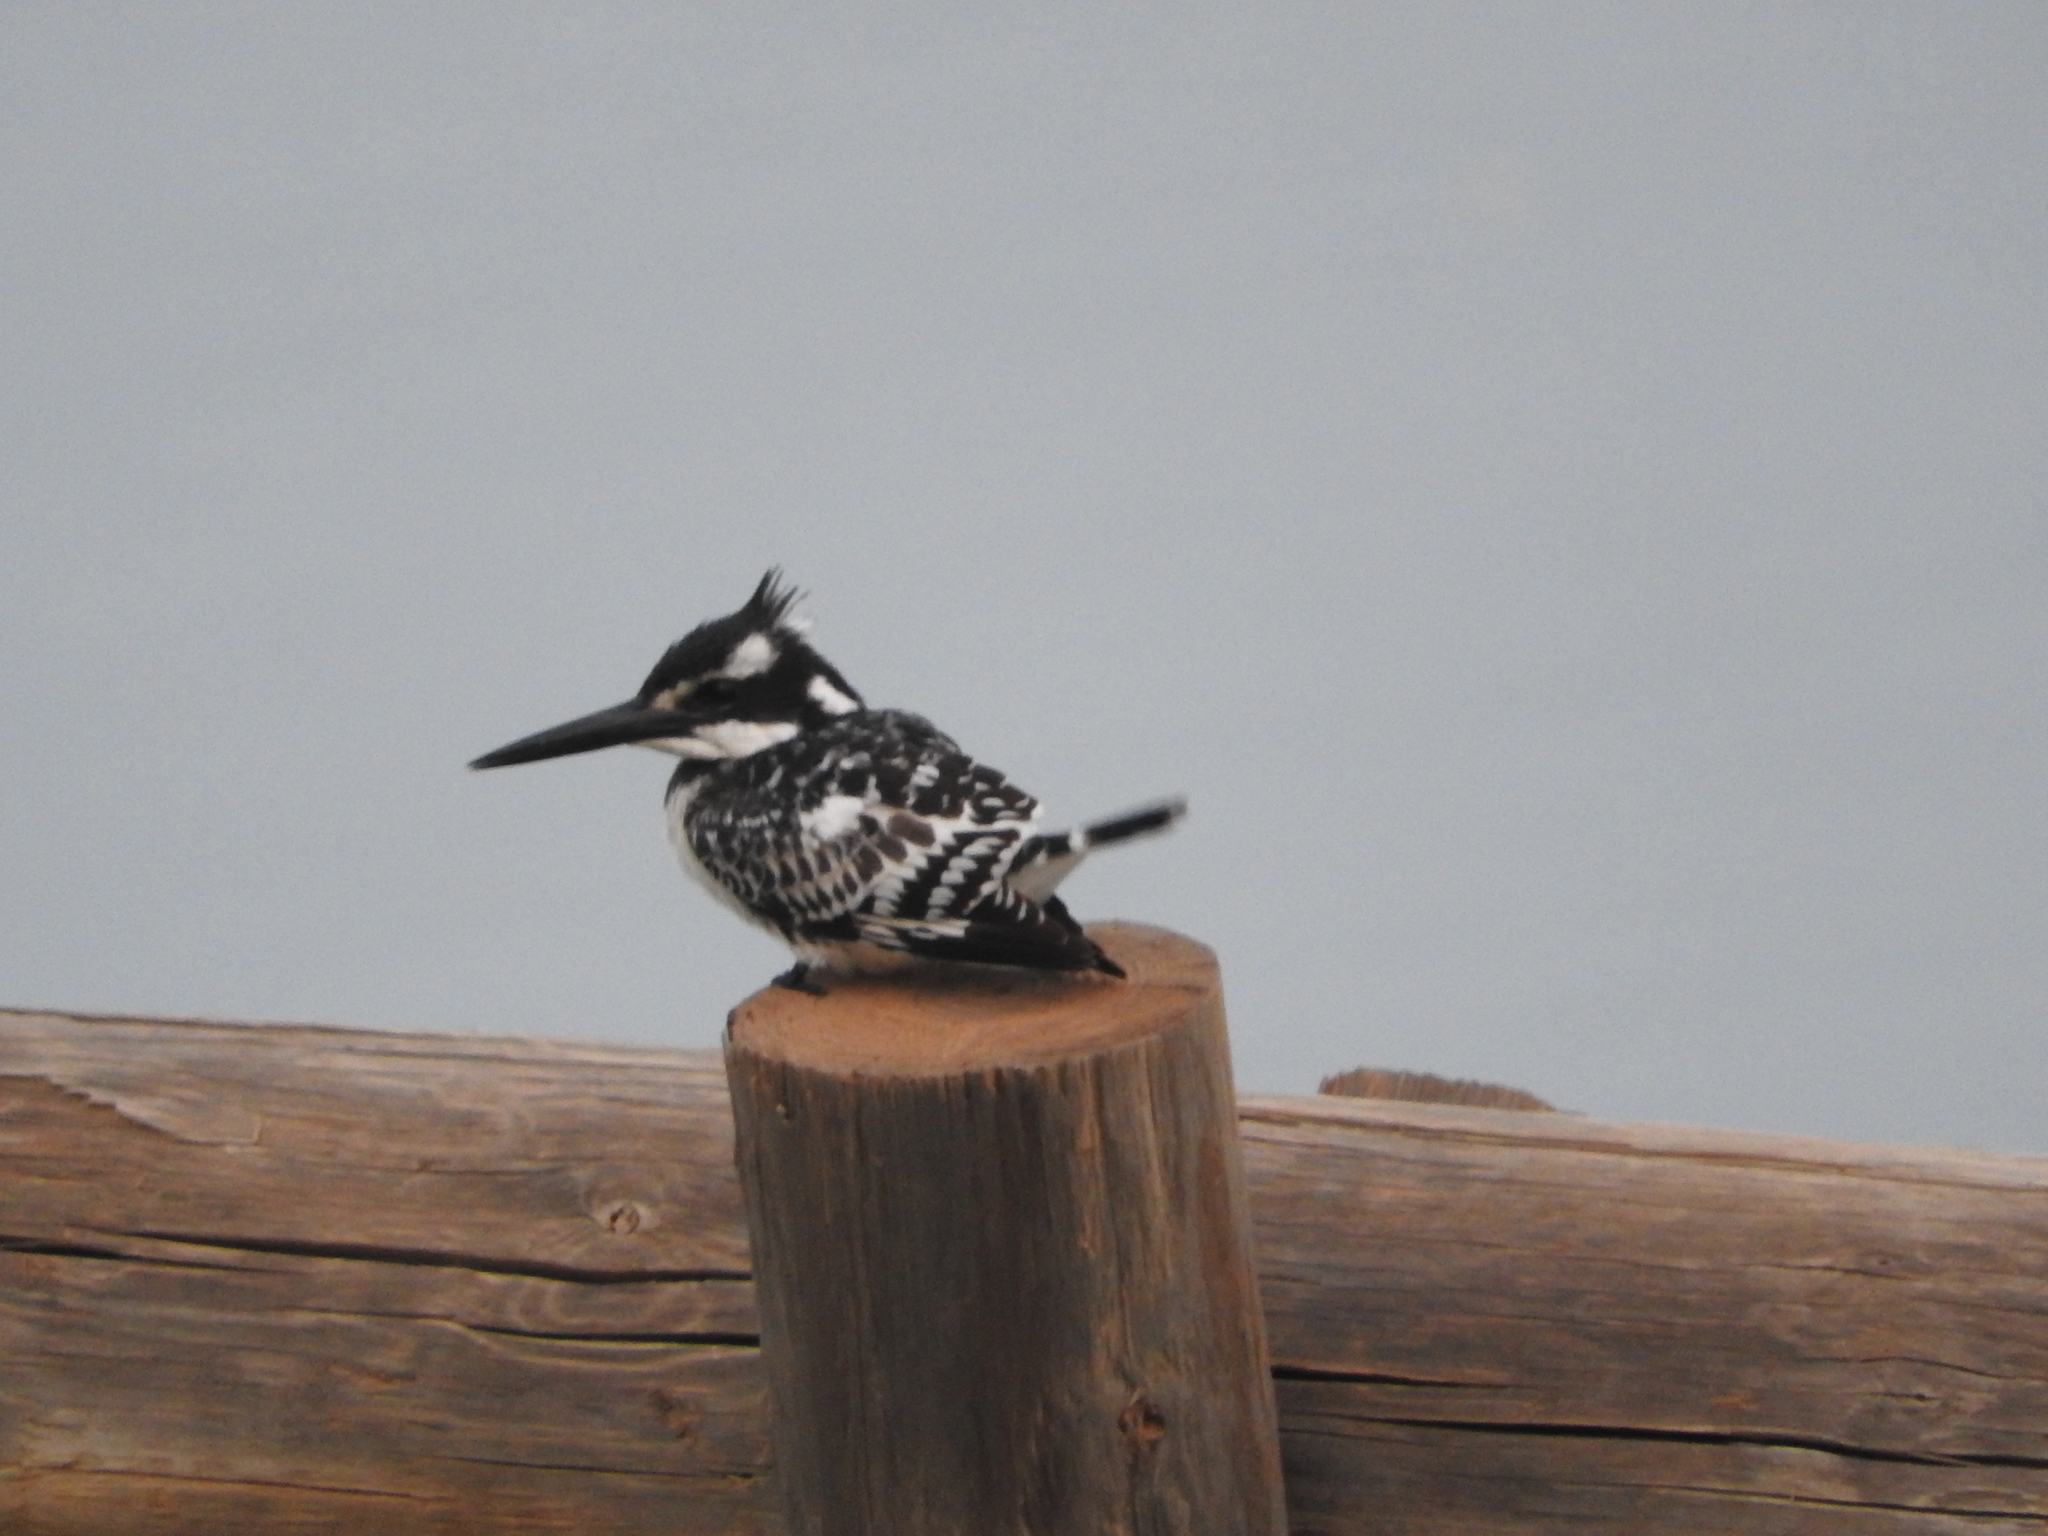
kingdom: Animalia
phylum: Chordata
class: Aves
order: Coraciiformes
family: Alcedinidae
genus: Ceryle
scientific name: Ceryle rudis
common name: Pied kingfisher
